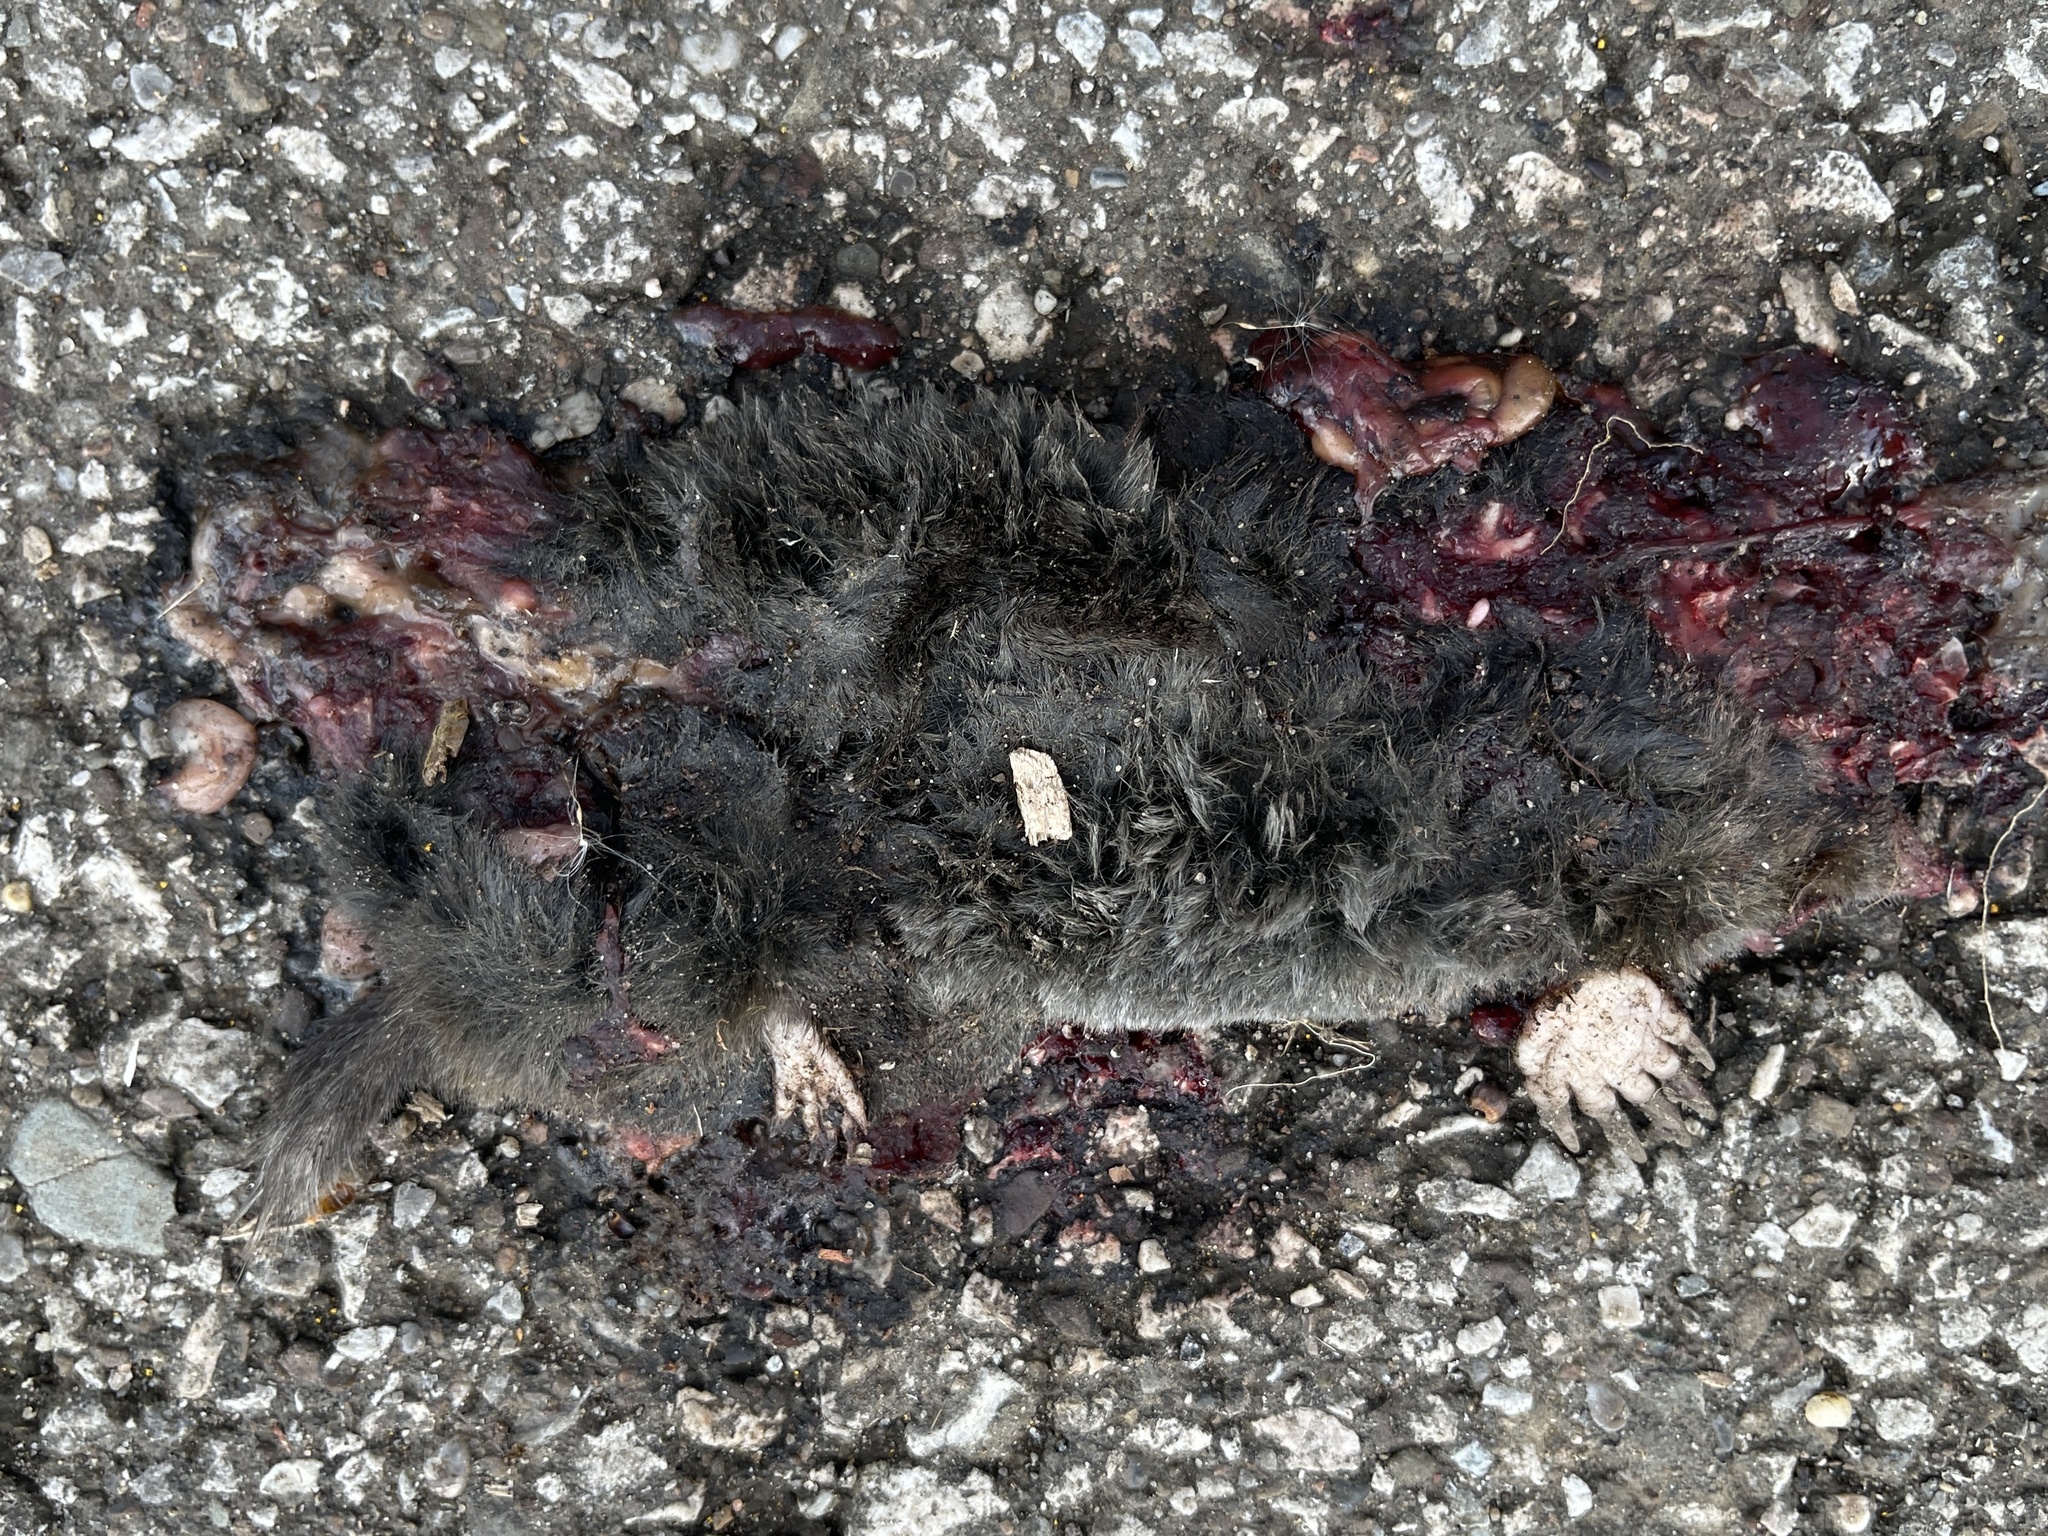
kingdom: Animalia
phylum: Chordata
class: Mammalia
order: Soricomorpha
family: Talpidae
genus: Parascalops
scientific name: Parascalops breweri
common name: Hairy-tailed mole
